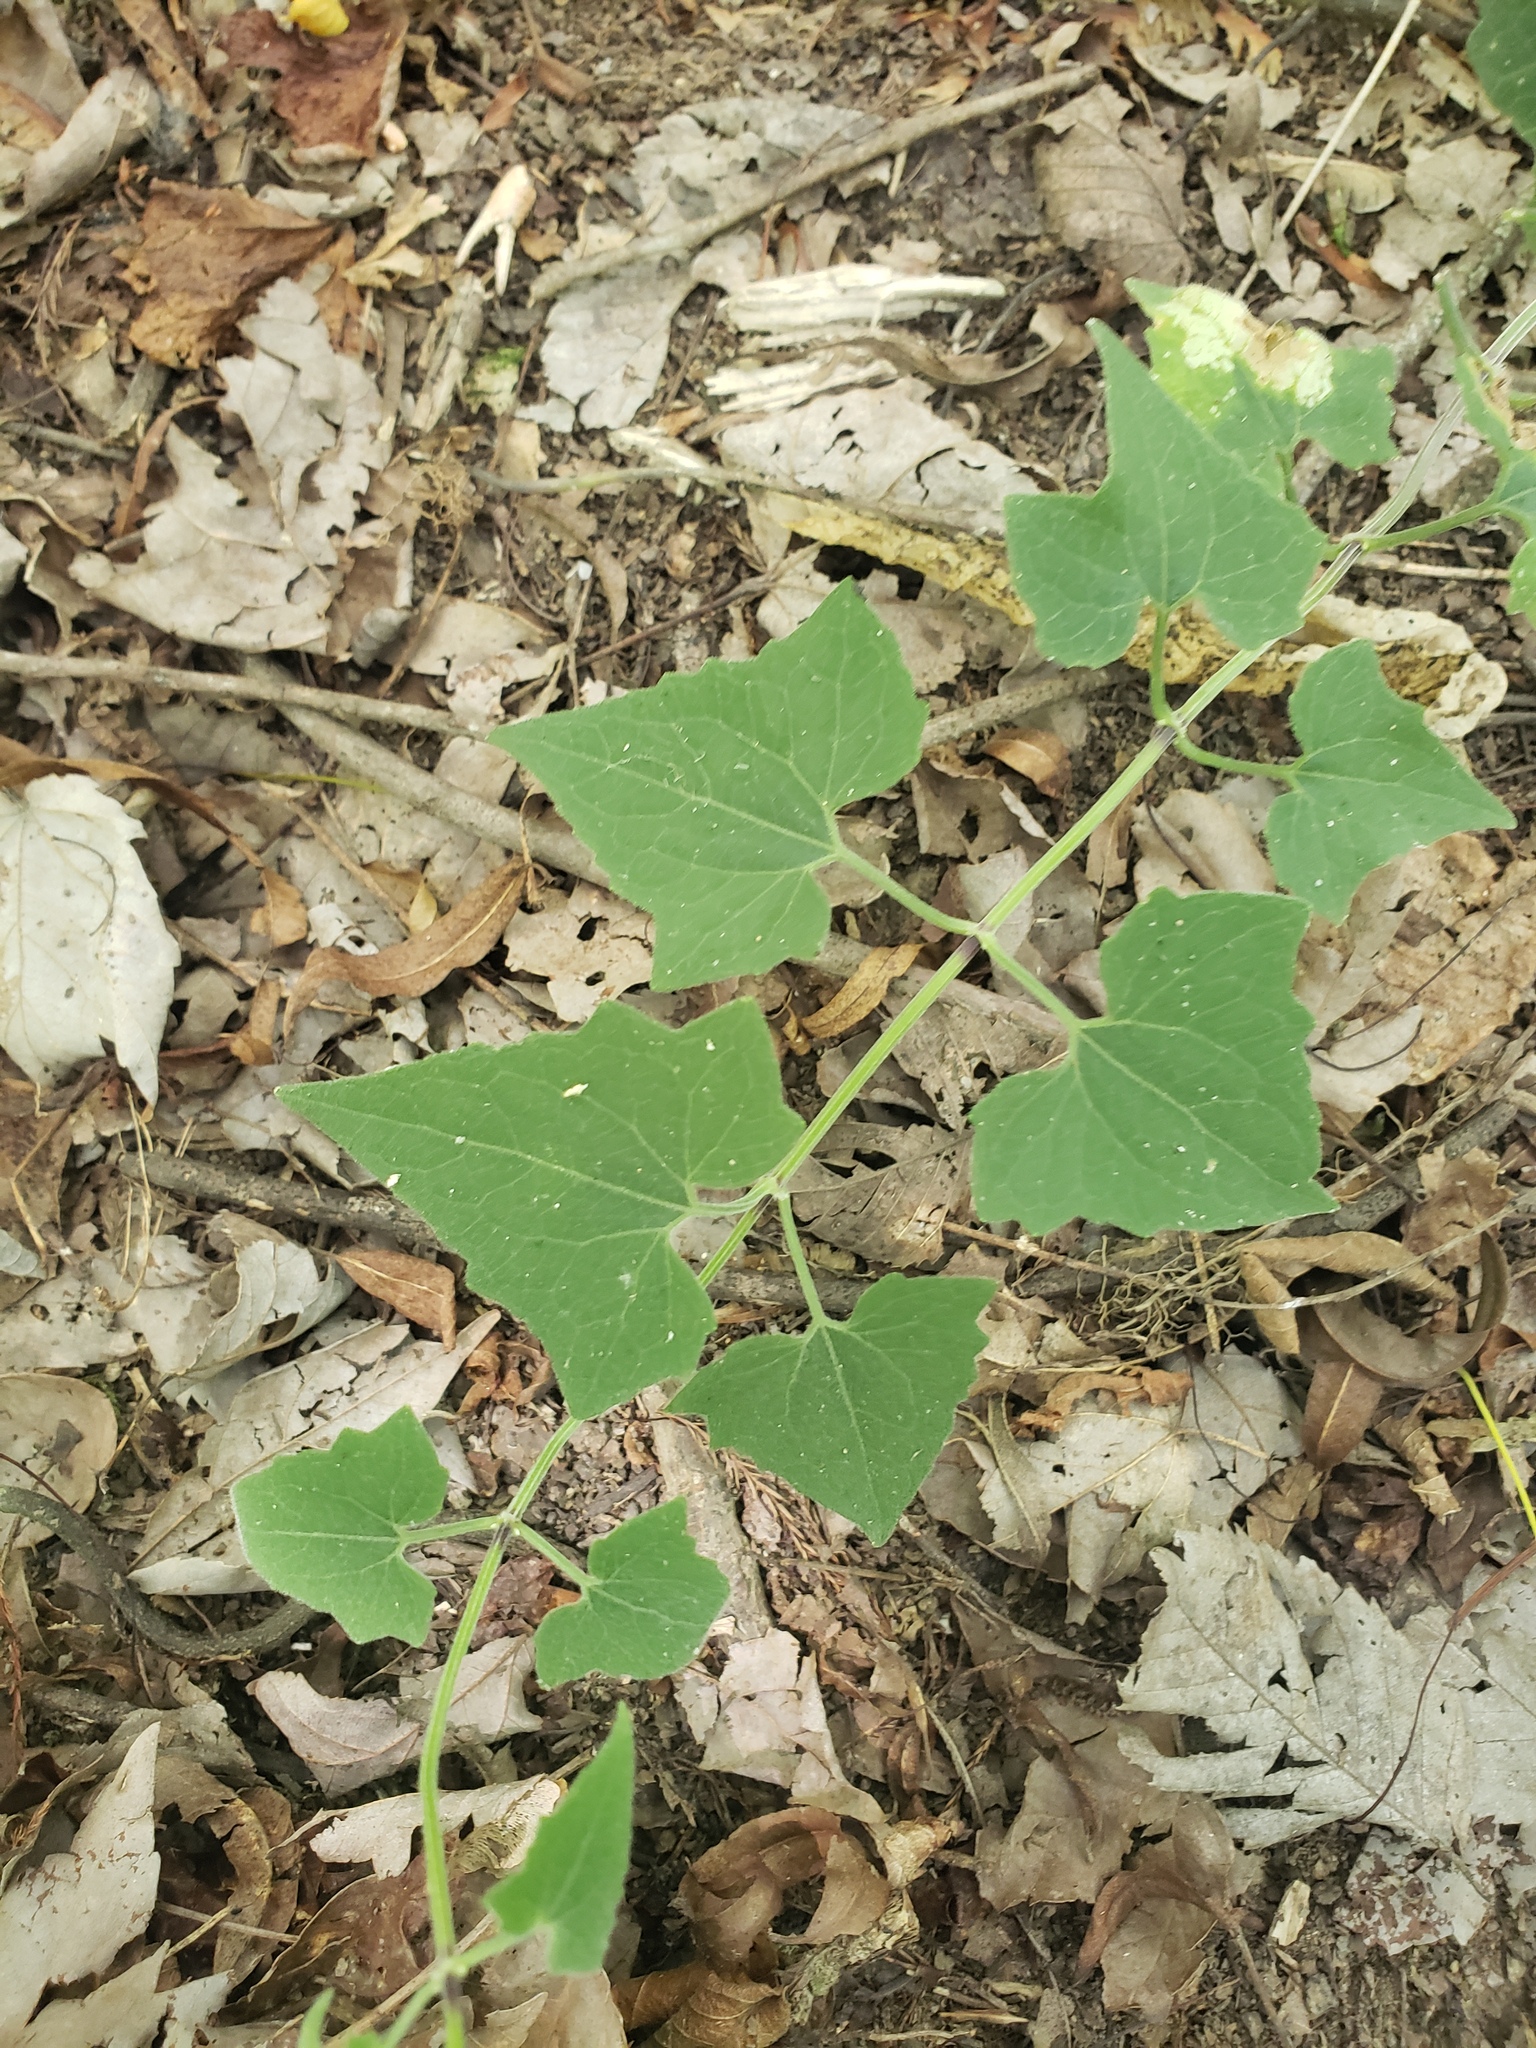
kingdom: Plantae
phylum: Tracheophyta
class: Magnoliopsida
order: Asterales
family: Asteraceae
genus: Mikania
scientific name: Mikania cordifolia
